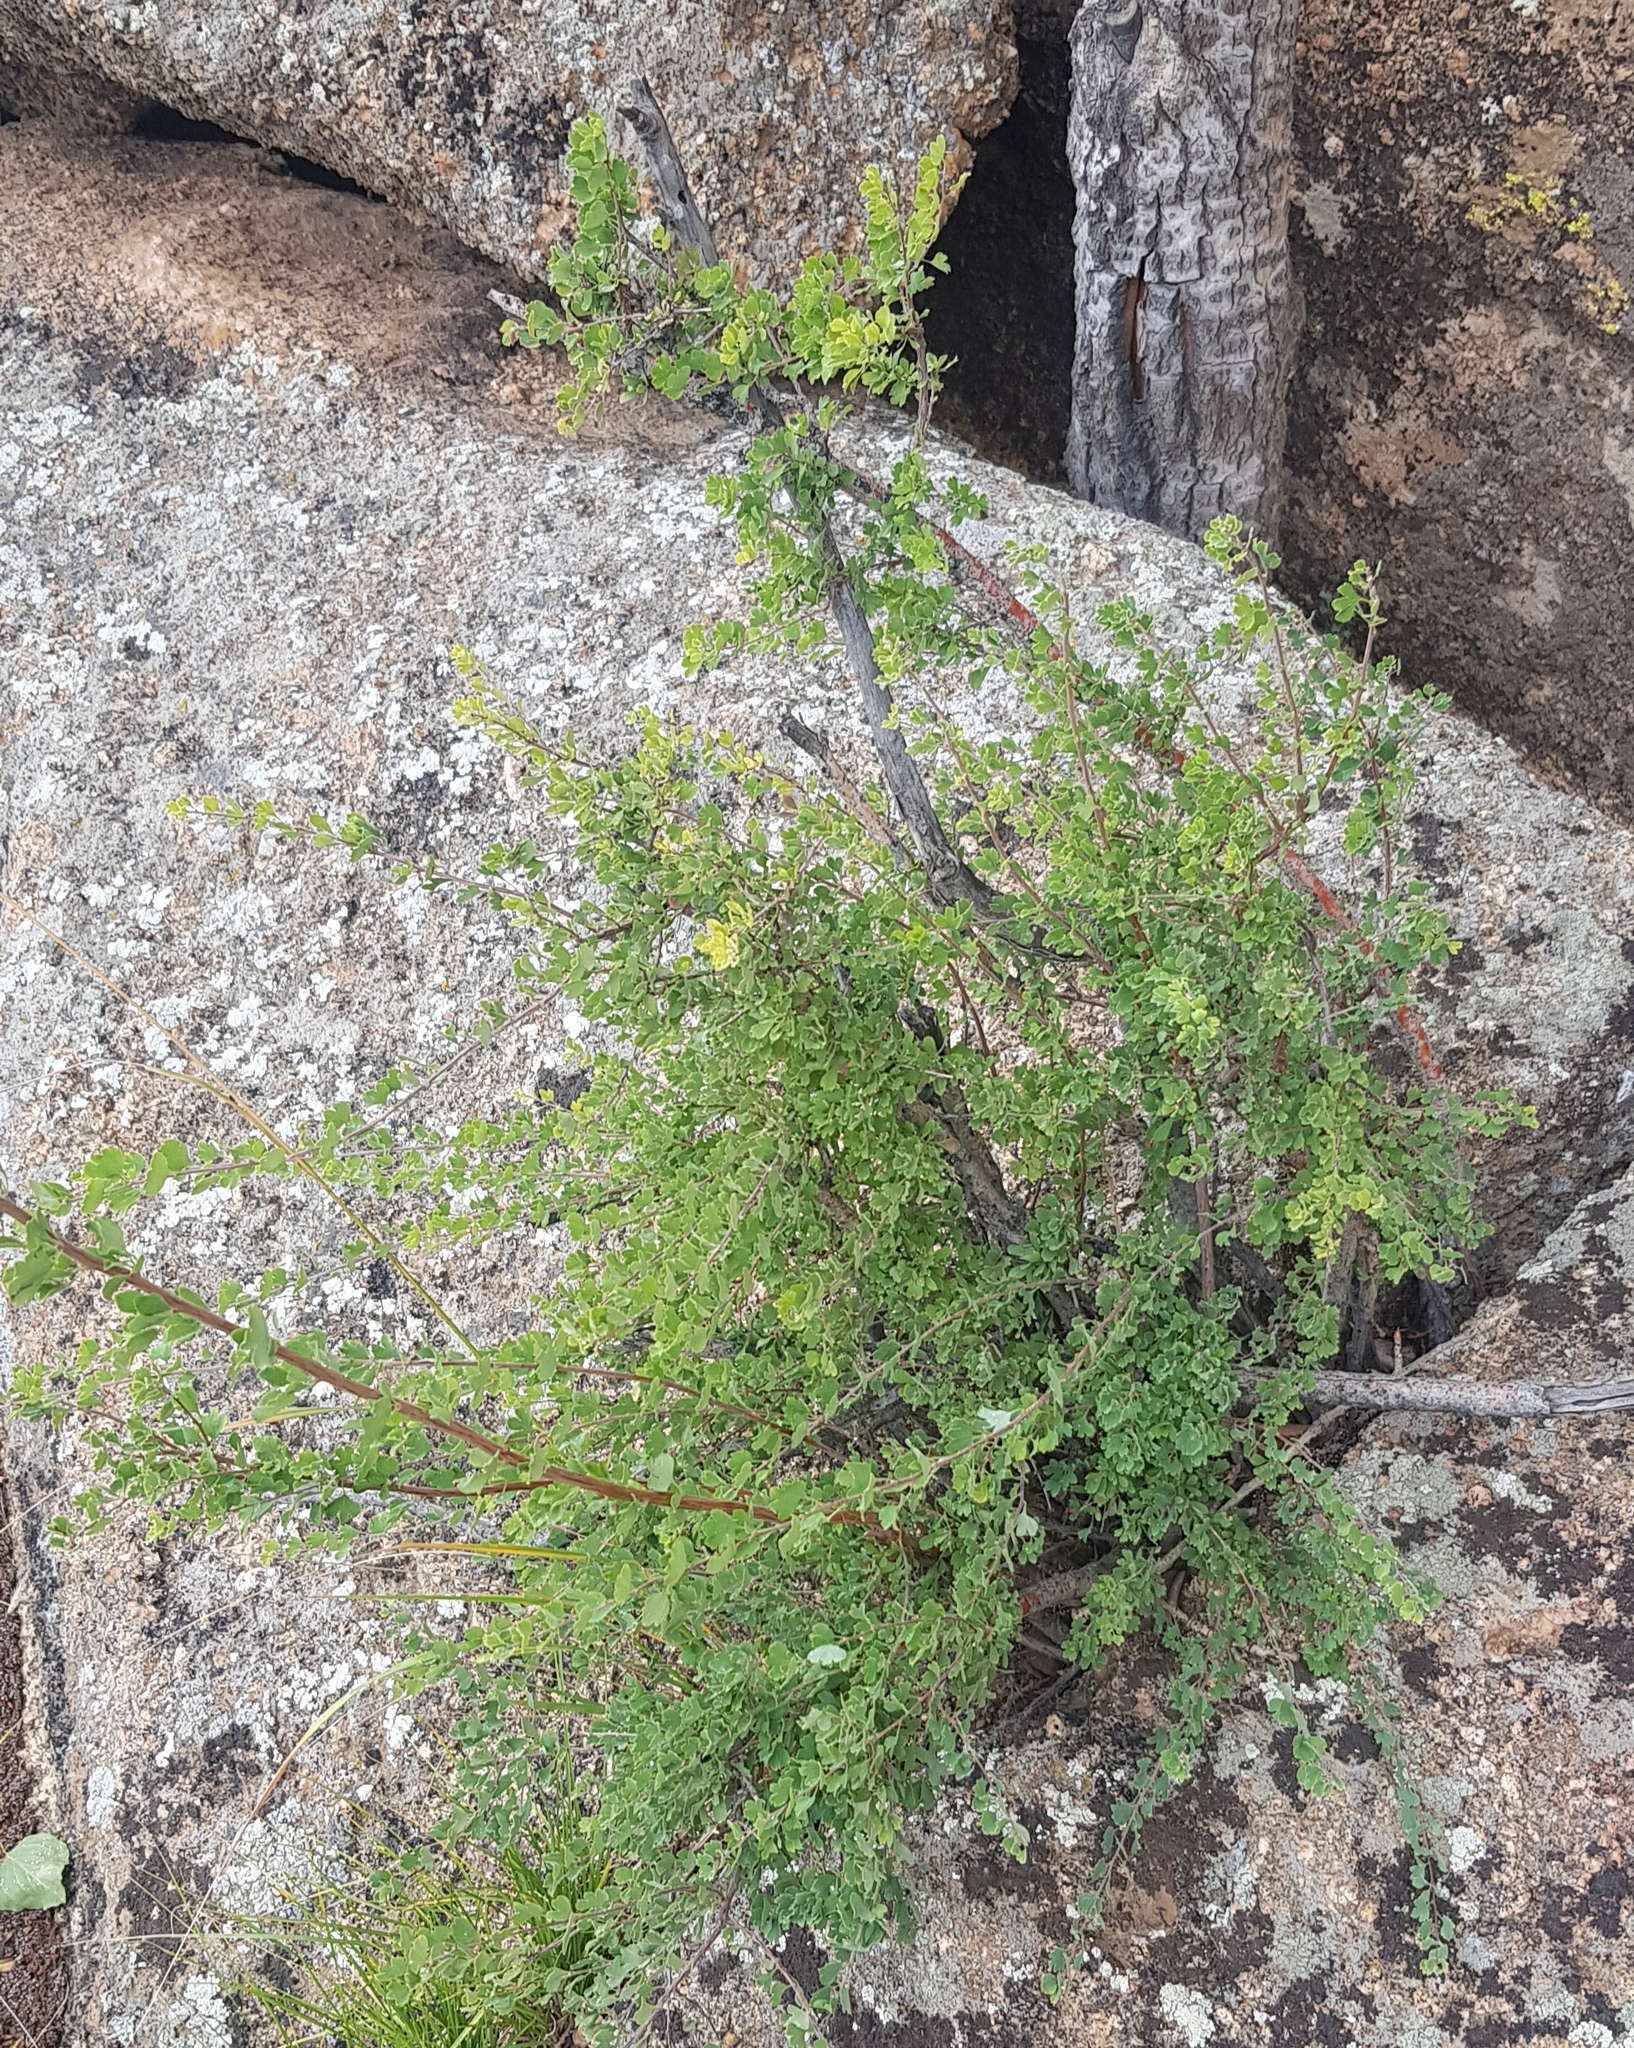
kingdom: Plantae
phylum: Tracheophyta
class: Magnoliopsida
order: Rosales
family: Rosaceae
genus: Spiraea
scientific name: Spiraea aquilegifolia
